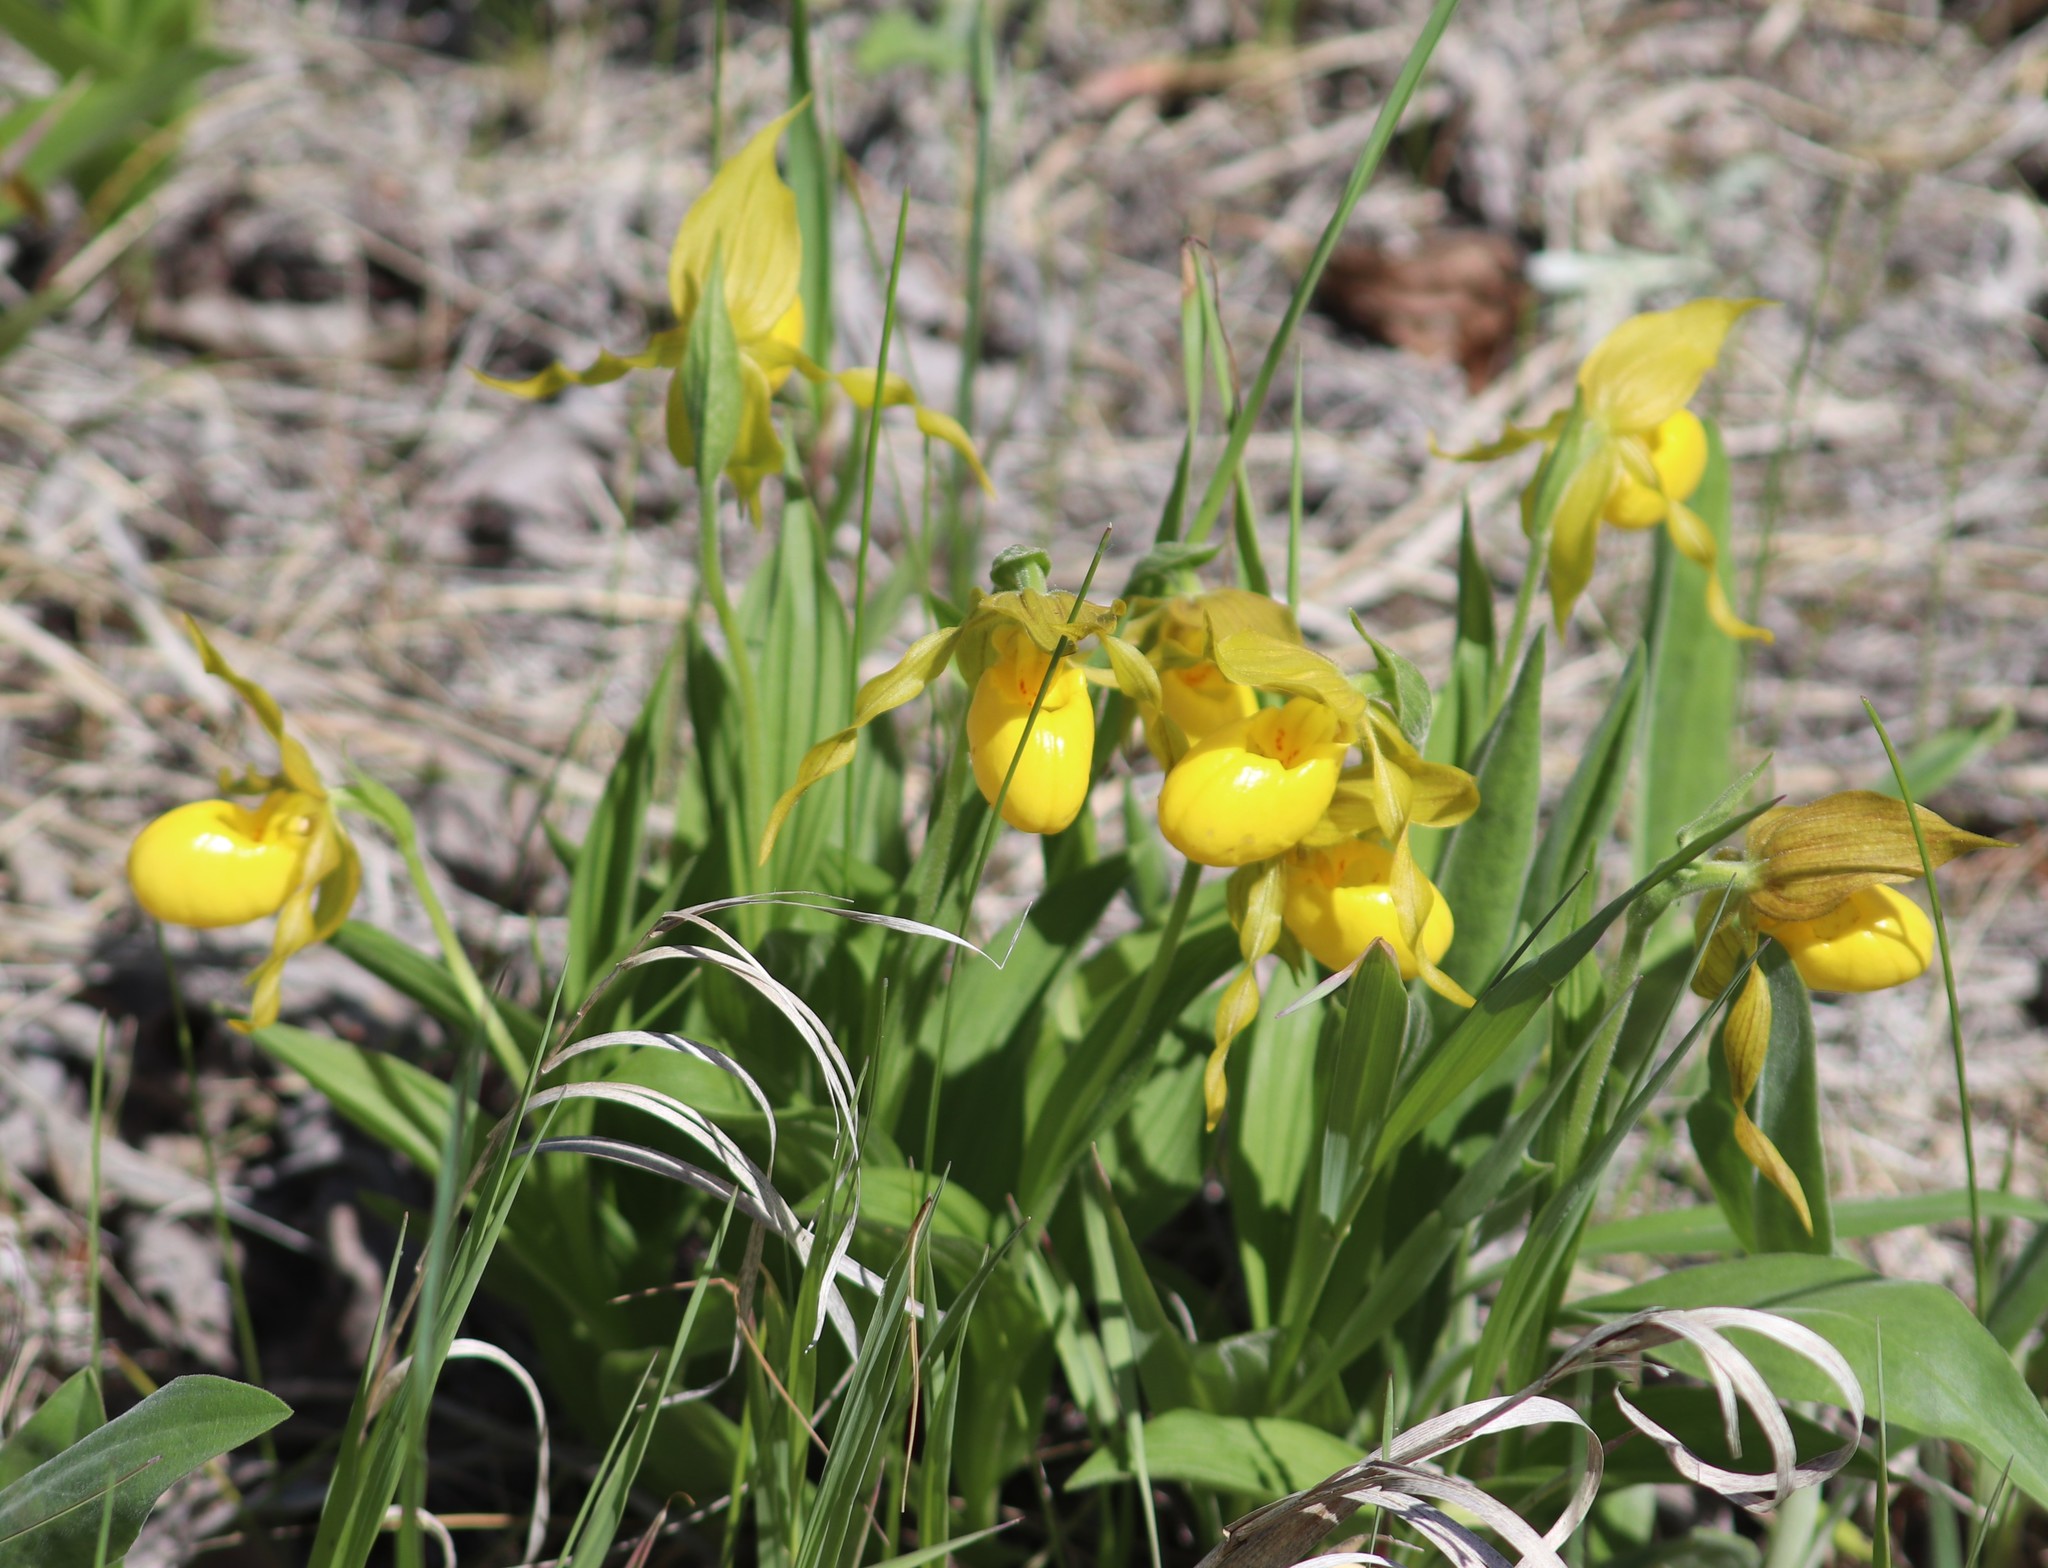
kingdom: Plantae
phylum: Tracheophyta
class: Liliopsida
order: Asparagales
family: Orchidaceae
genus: Cypripedium
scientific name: Cypripedium parviflorum
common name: American yellow lady's-slipper
